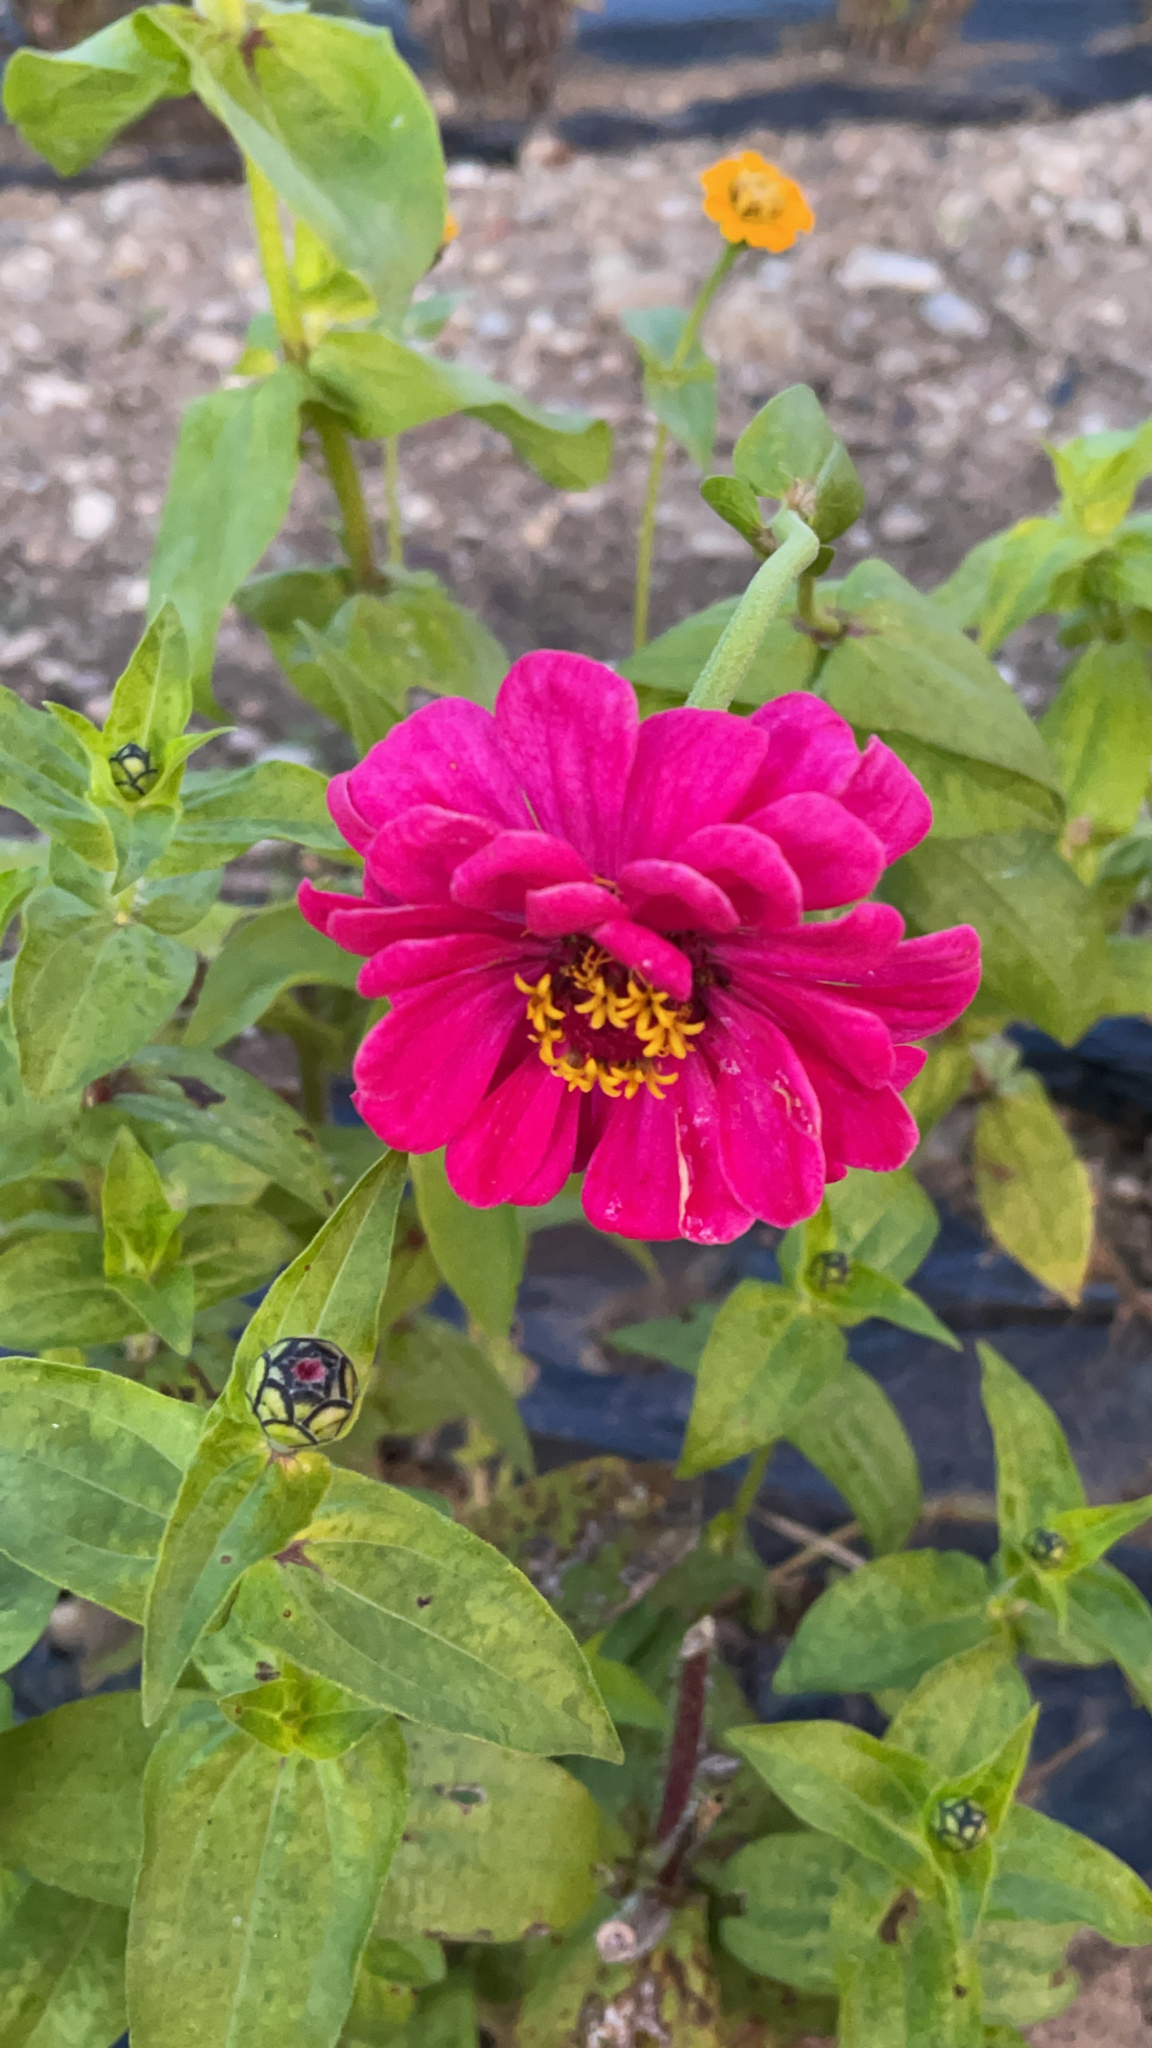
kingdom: Plantae
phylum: Tracheophyta
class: Magnoliopsida
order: Asterales
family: Asteraceae
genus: Zinnia
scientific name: Zinnia elegans
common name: Youth-and-age
